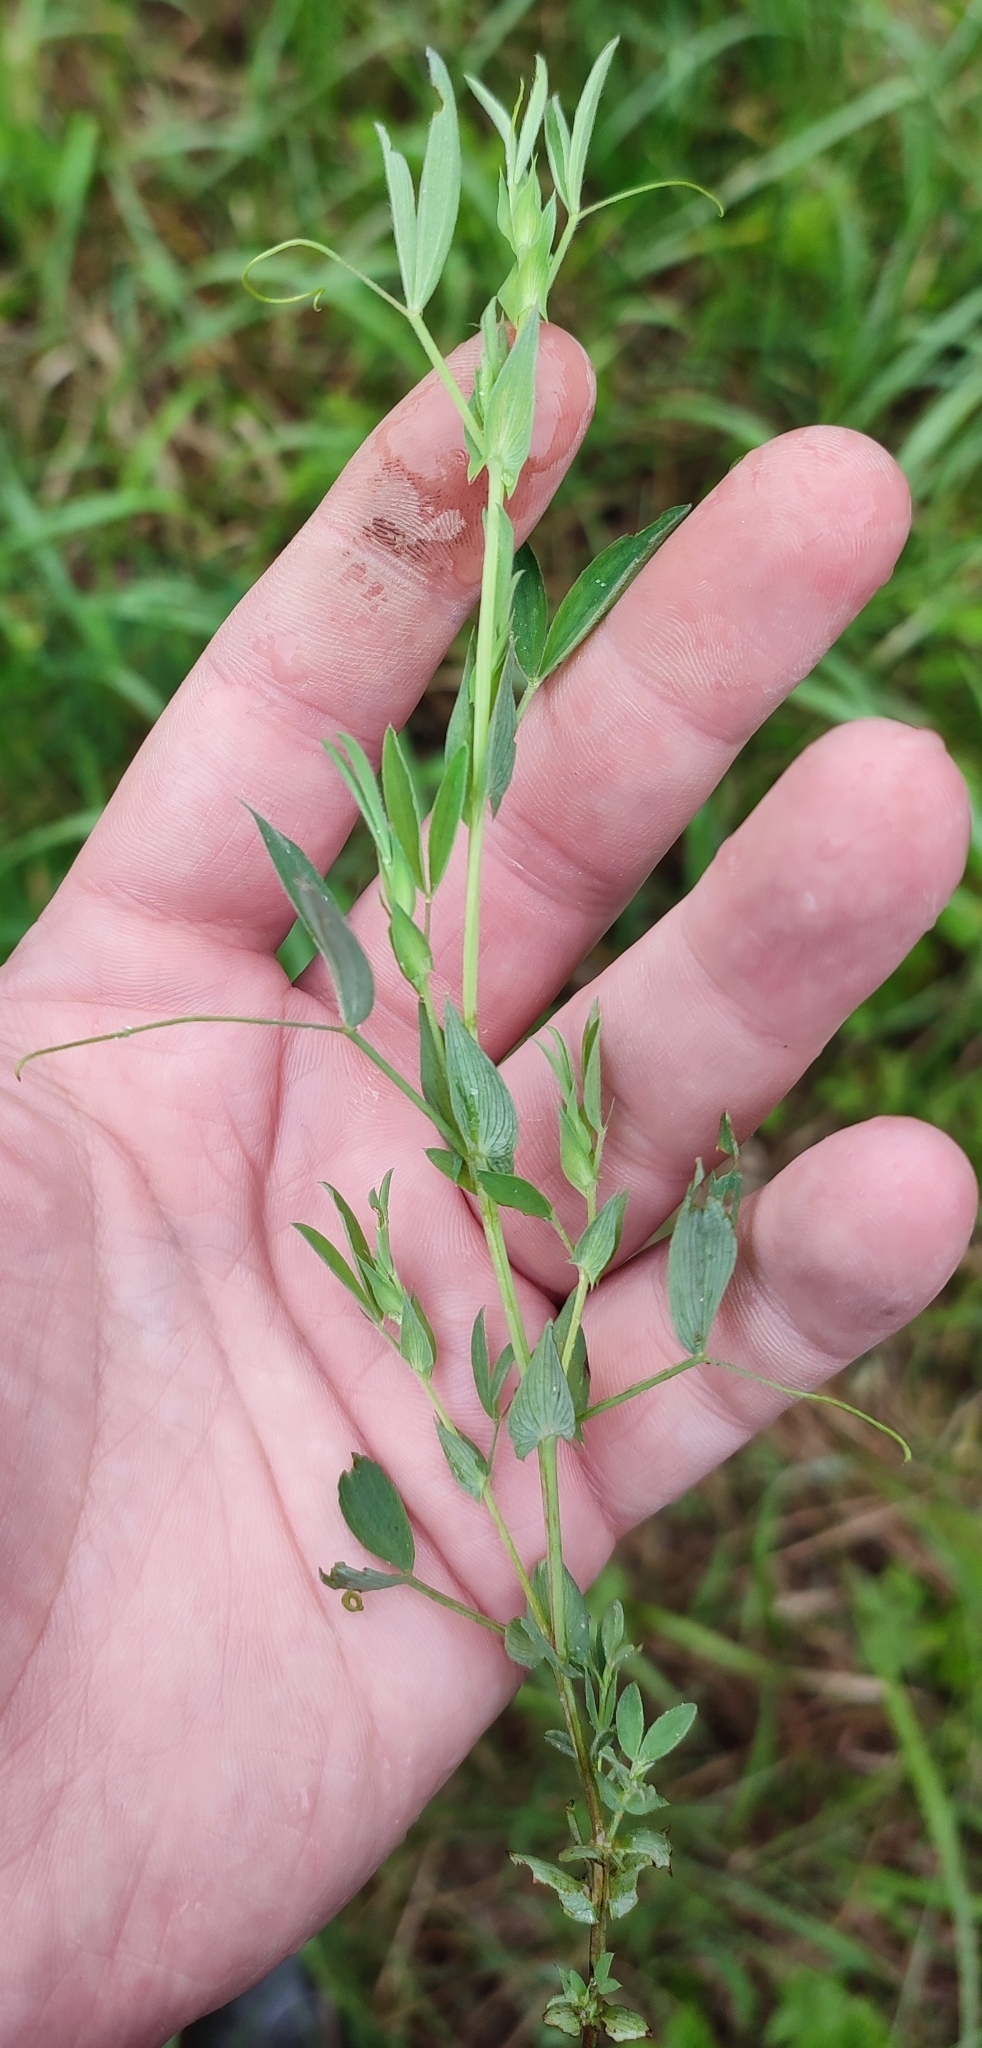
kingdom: Plantae
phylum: Tracheophyta
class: Magnoliopsida
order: Fabales
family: Fabaceae
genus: Lathyrus
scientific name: Lathyrus pratensis
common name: Meadow vetchling
